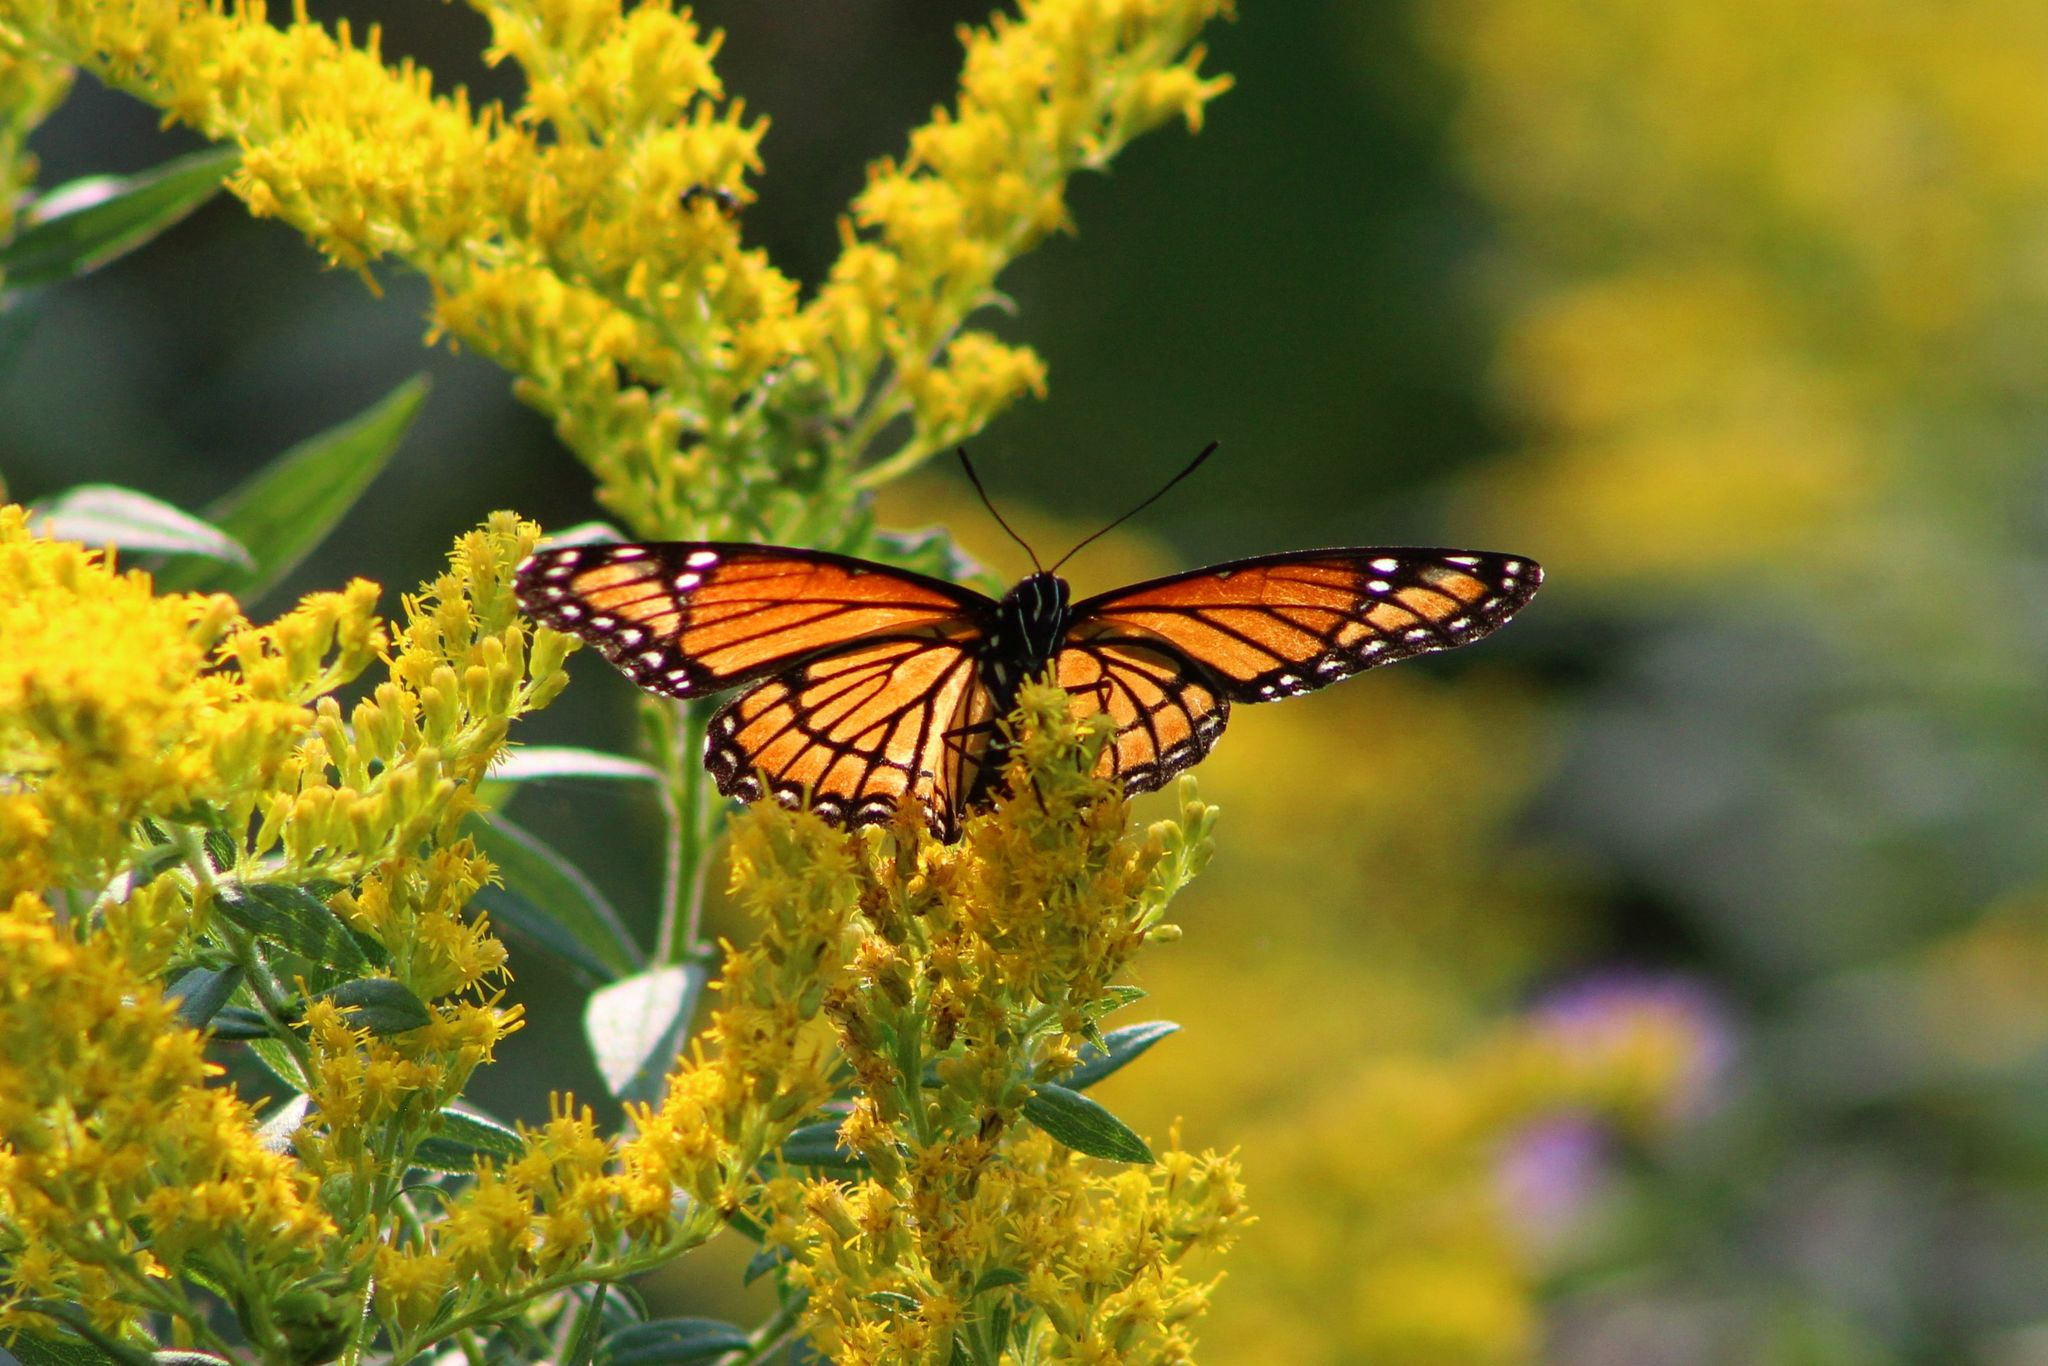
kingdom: Animalia
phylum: Arthropoda
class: Insecta
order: Lepidoptera
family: Nymphalidae
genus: Limenitis
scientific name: Limenitis archippus
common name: Viceroy
